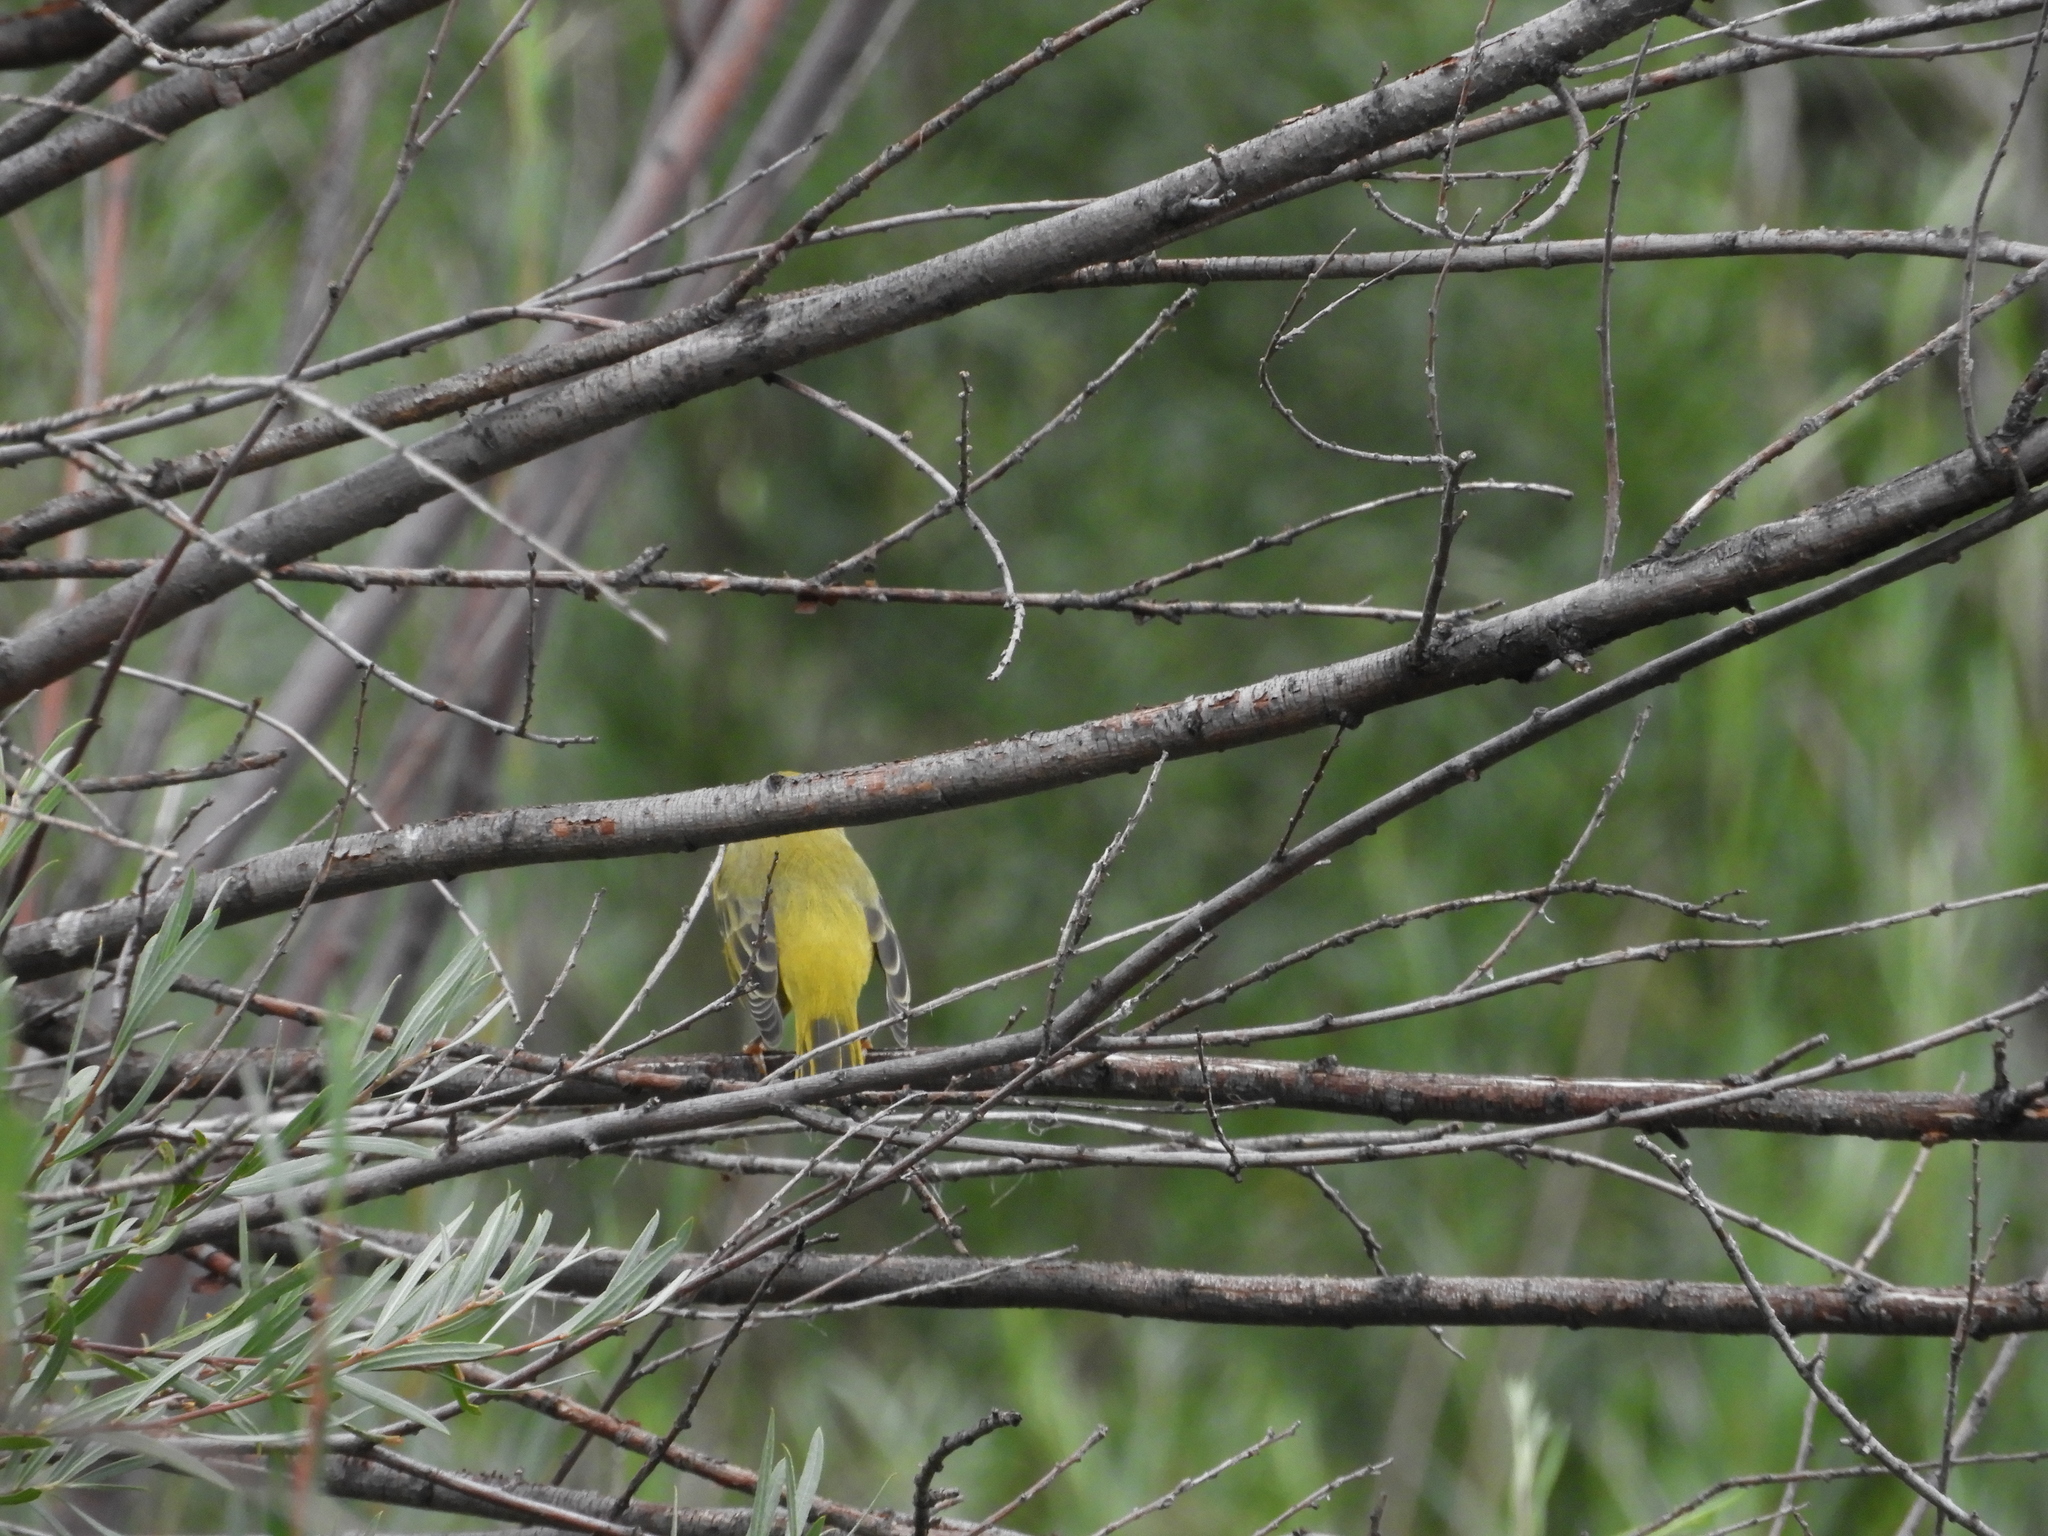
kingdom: Animalia
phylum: Chordata
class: Aves
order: Passeriformes
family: Parulidae
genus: Setophaga
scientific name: Setophaga petechia
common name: Yellow warbler
